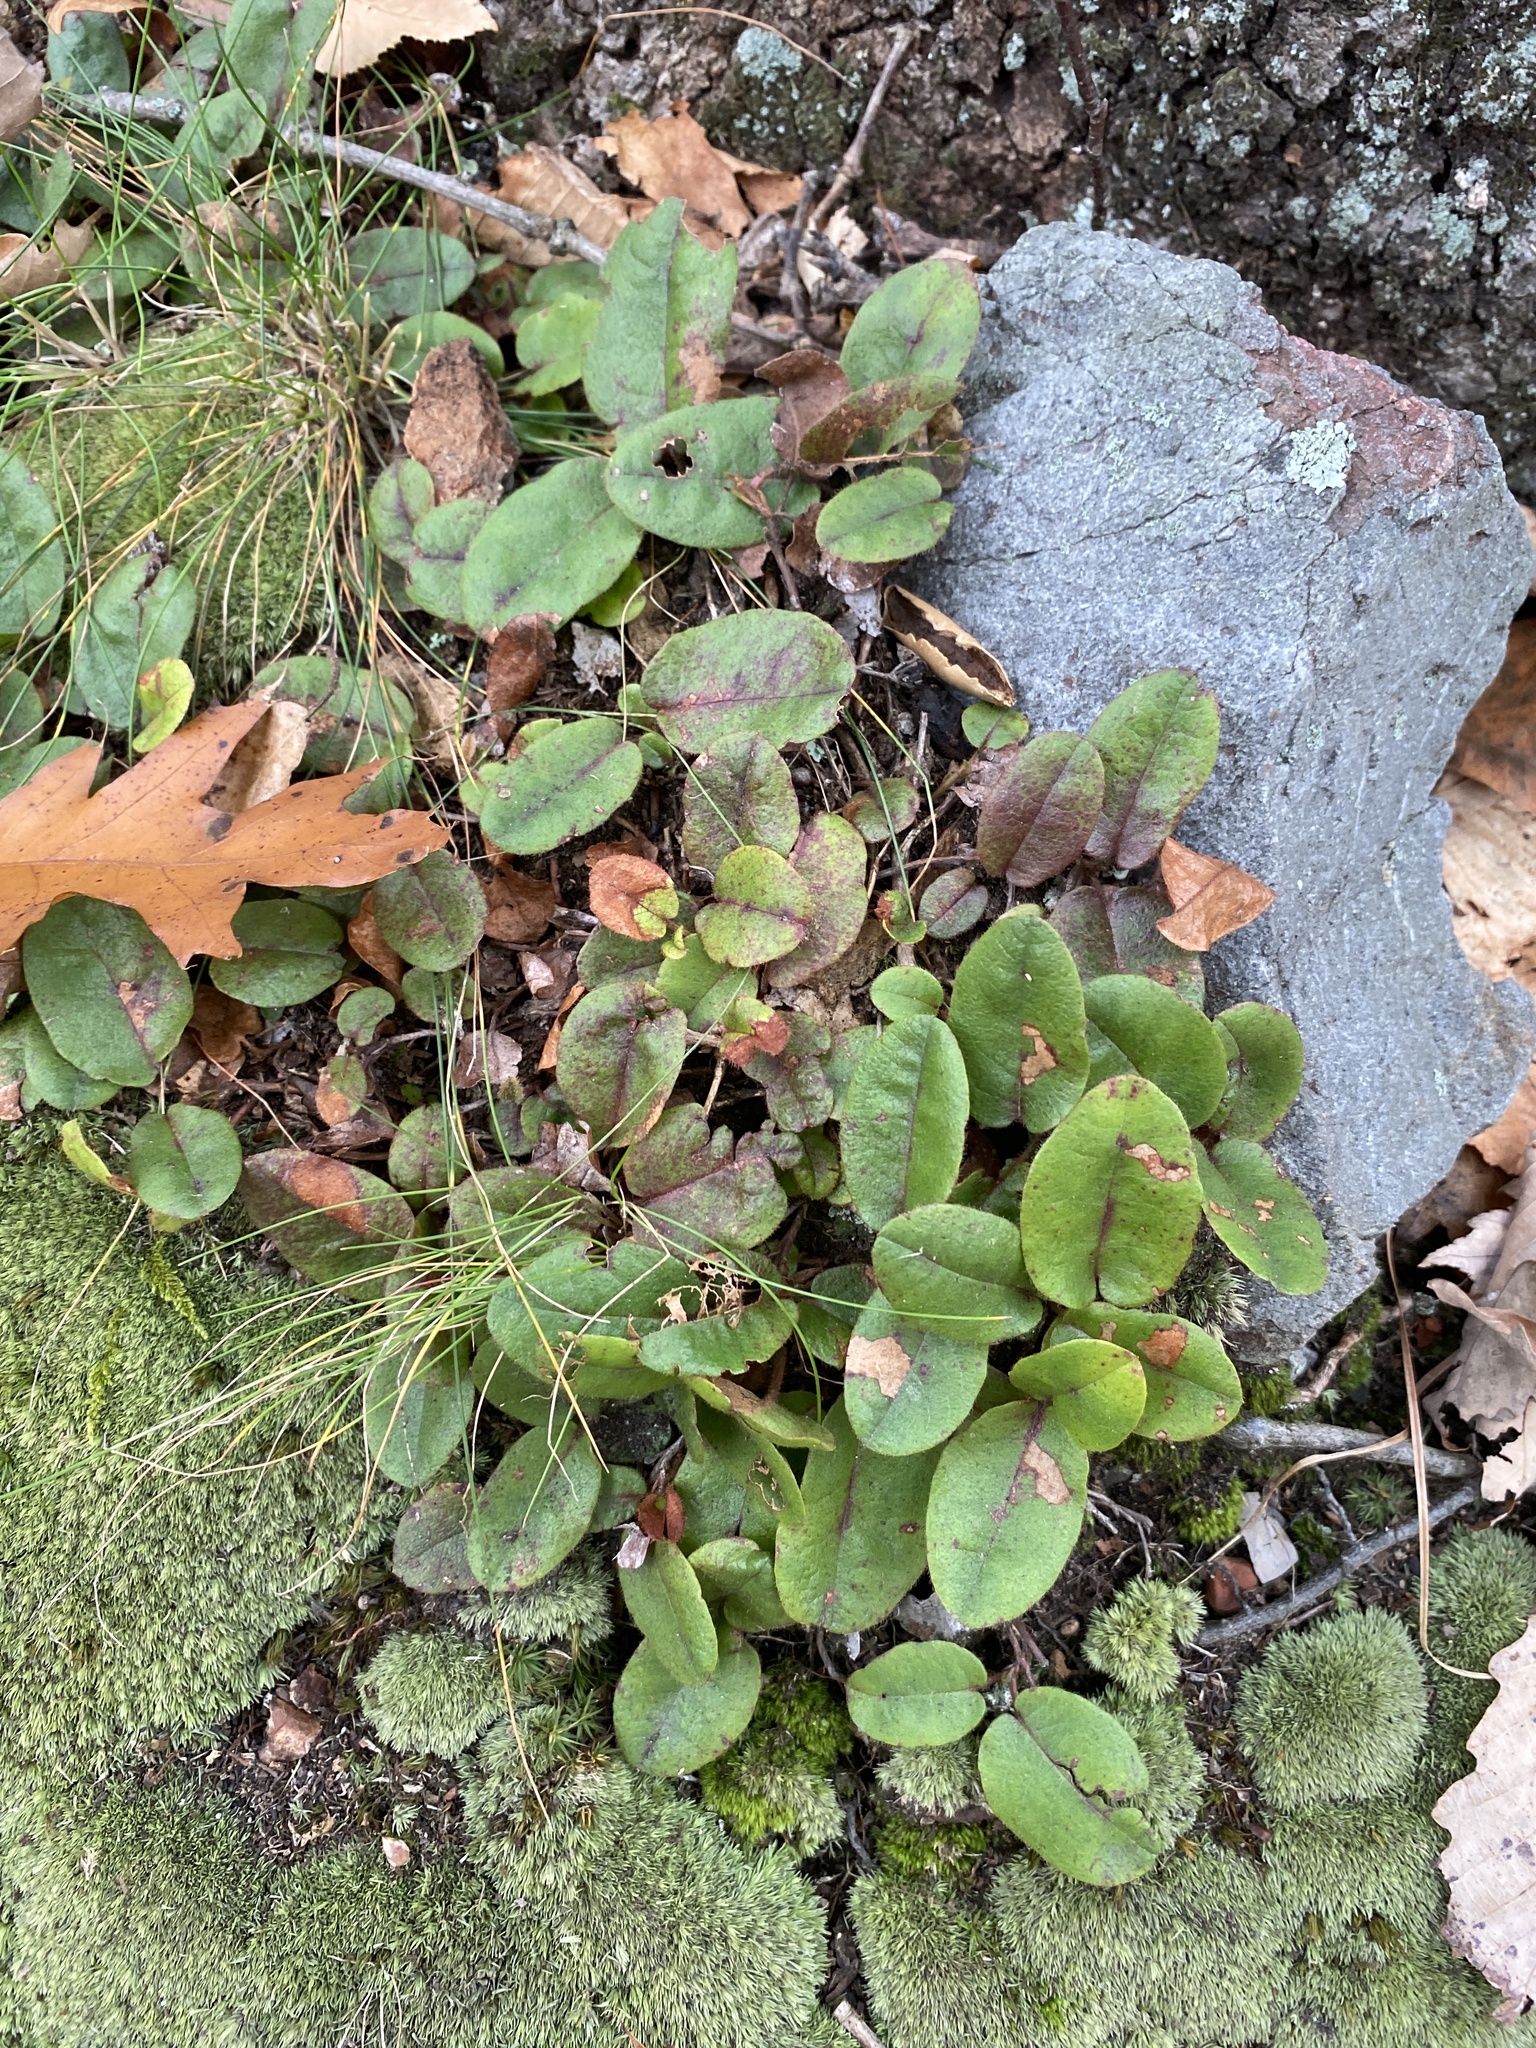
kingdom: Plantae
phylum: Tracheophyta
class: Magnoliopsida
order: Ericales
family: Ericaceae
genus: Epigaea
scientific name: Epigaea repens
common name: Gravelroot
